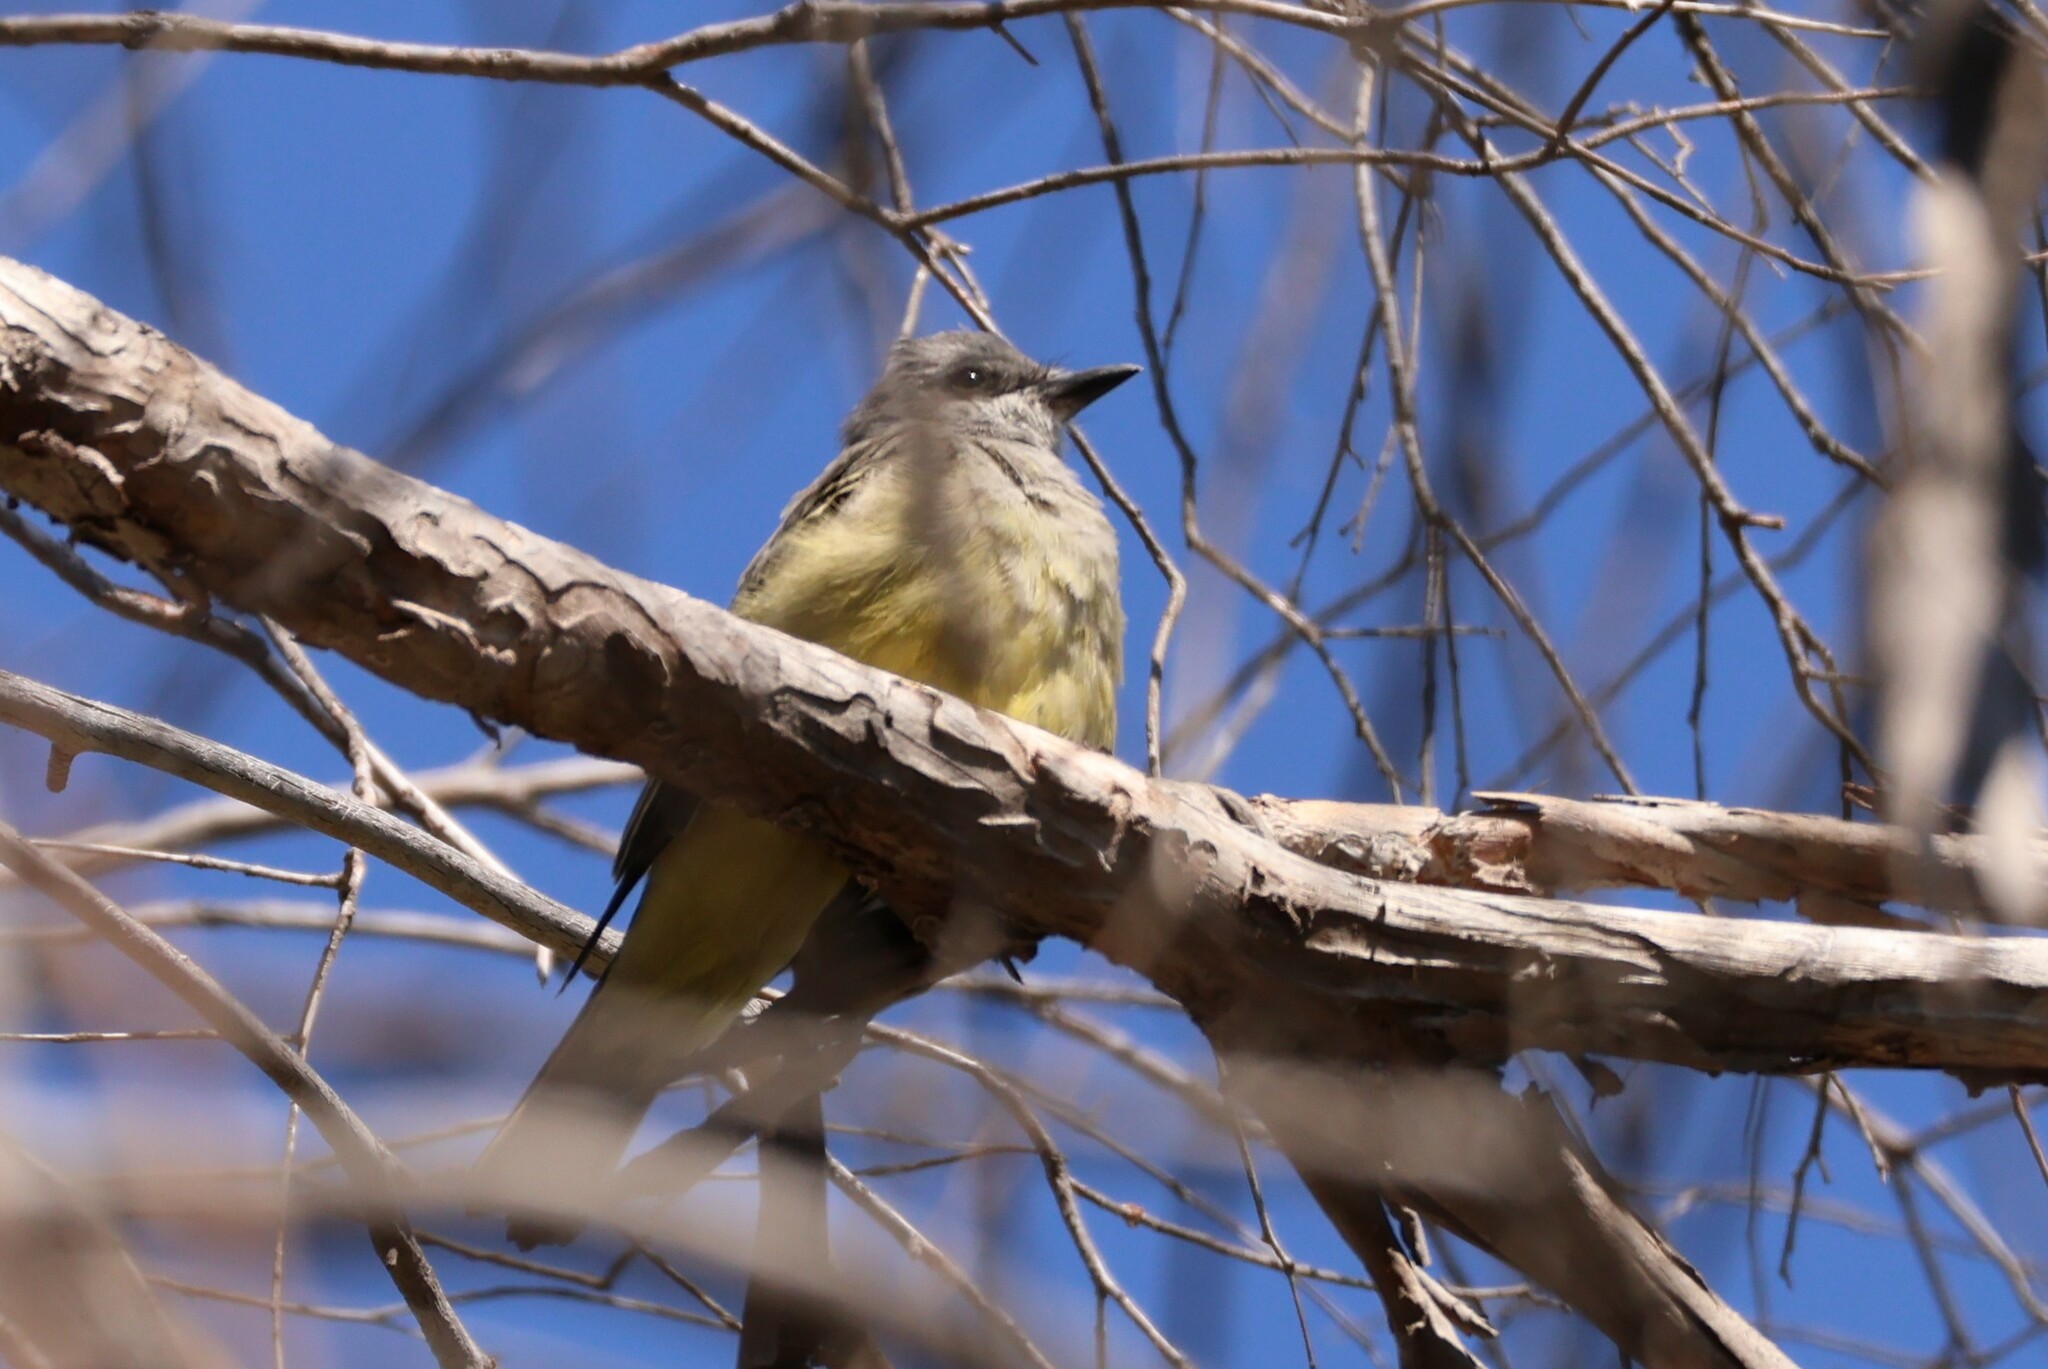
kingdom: Animalia
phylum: Chordata
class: Aves
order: Passeriformes
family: Tyrannidae
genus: Tyrannus
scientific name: Tyrannus vociferans
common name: Cassin's kingbird
